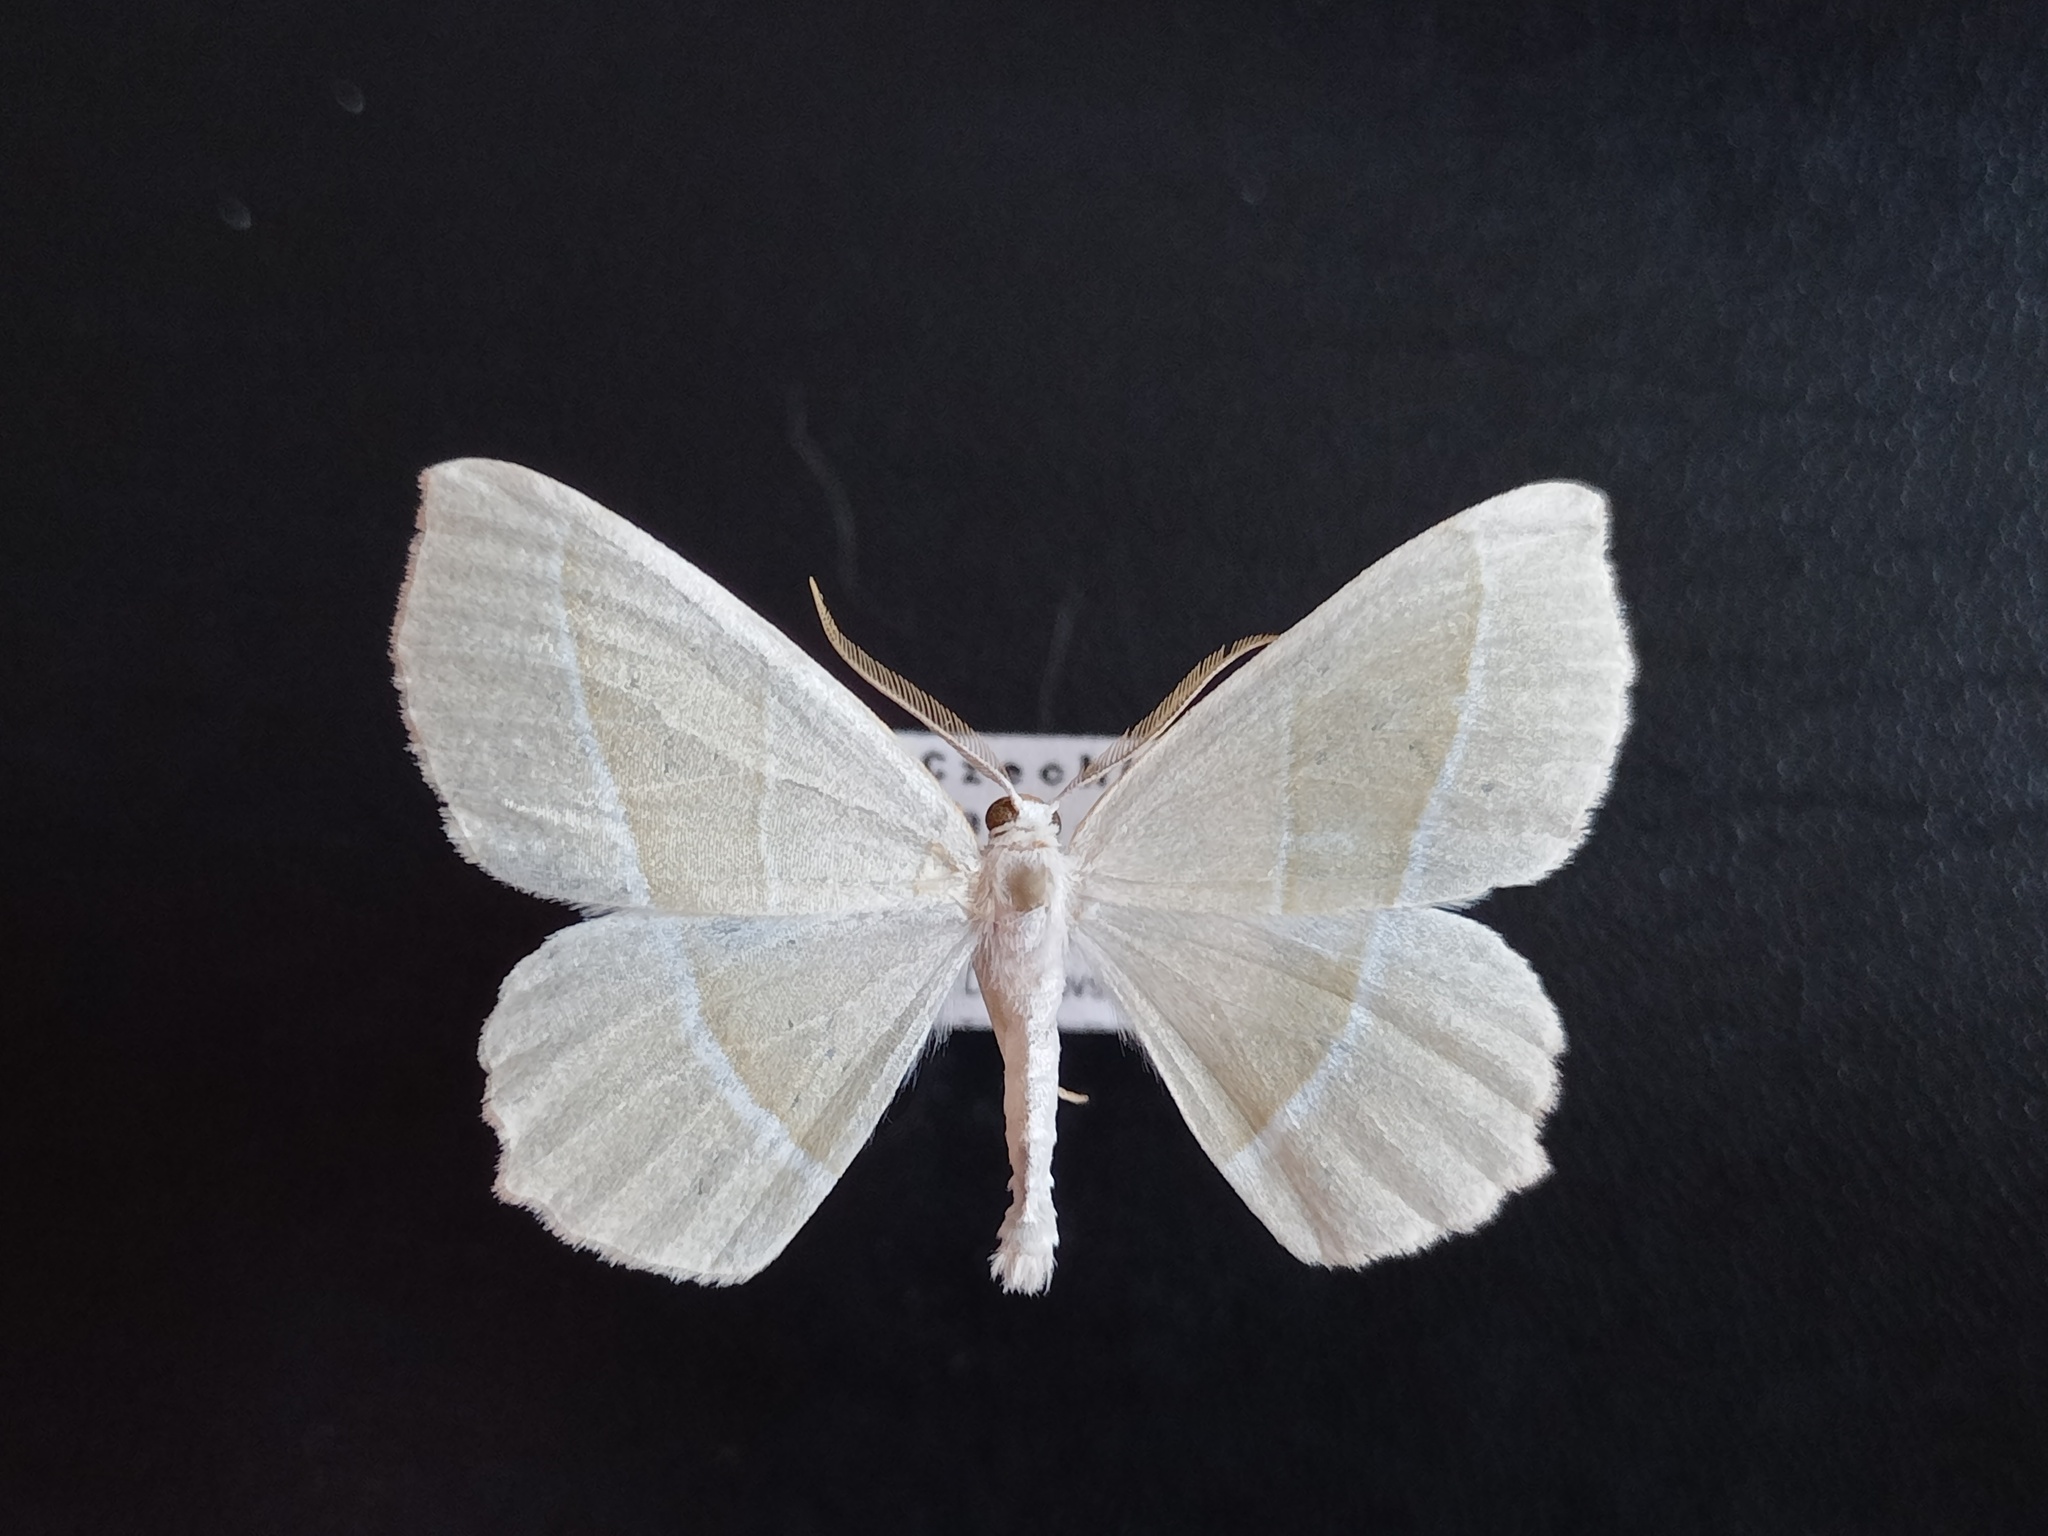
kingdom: Animalia
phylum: Arthropoda
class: Insecta
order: Lepidoptera
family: Geometridae
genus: Campaea
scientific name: Campaea margaritaria
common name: Light emerald
